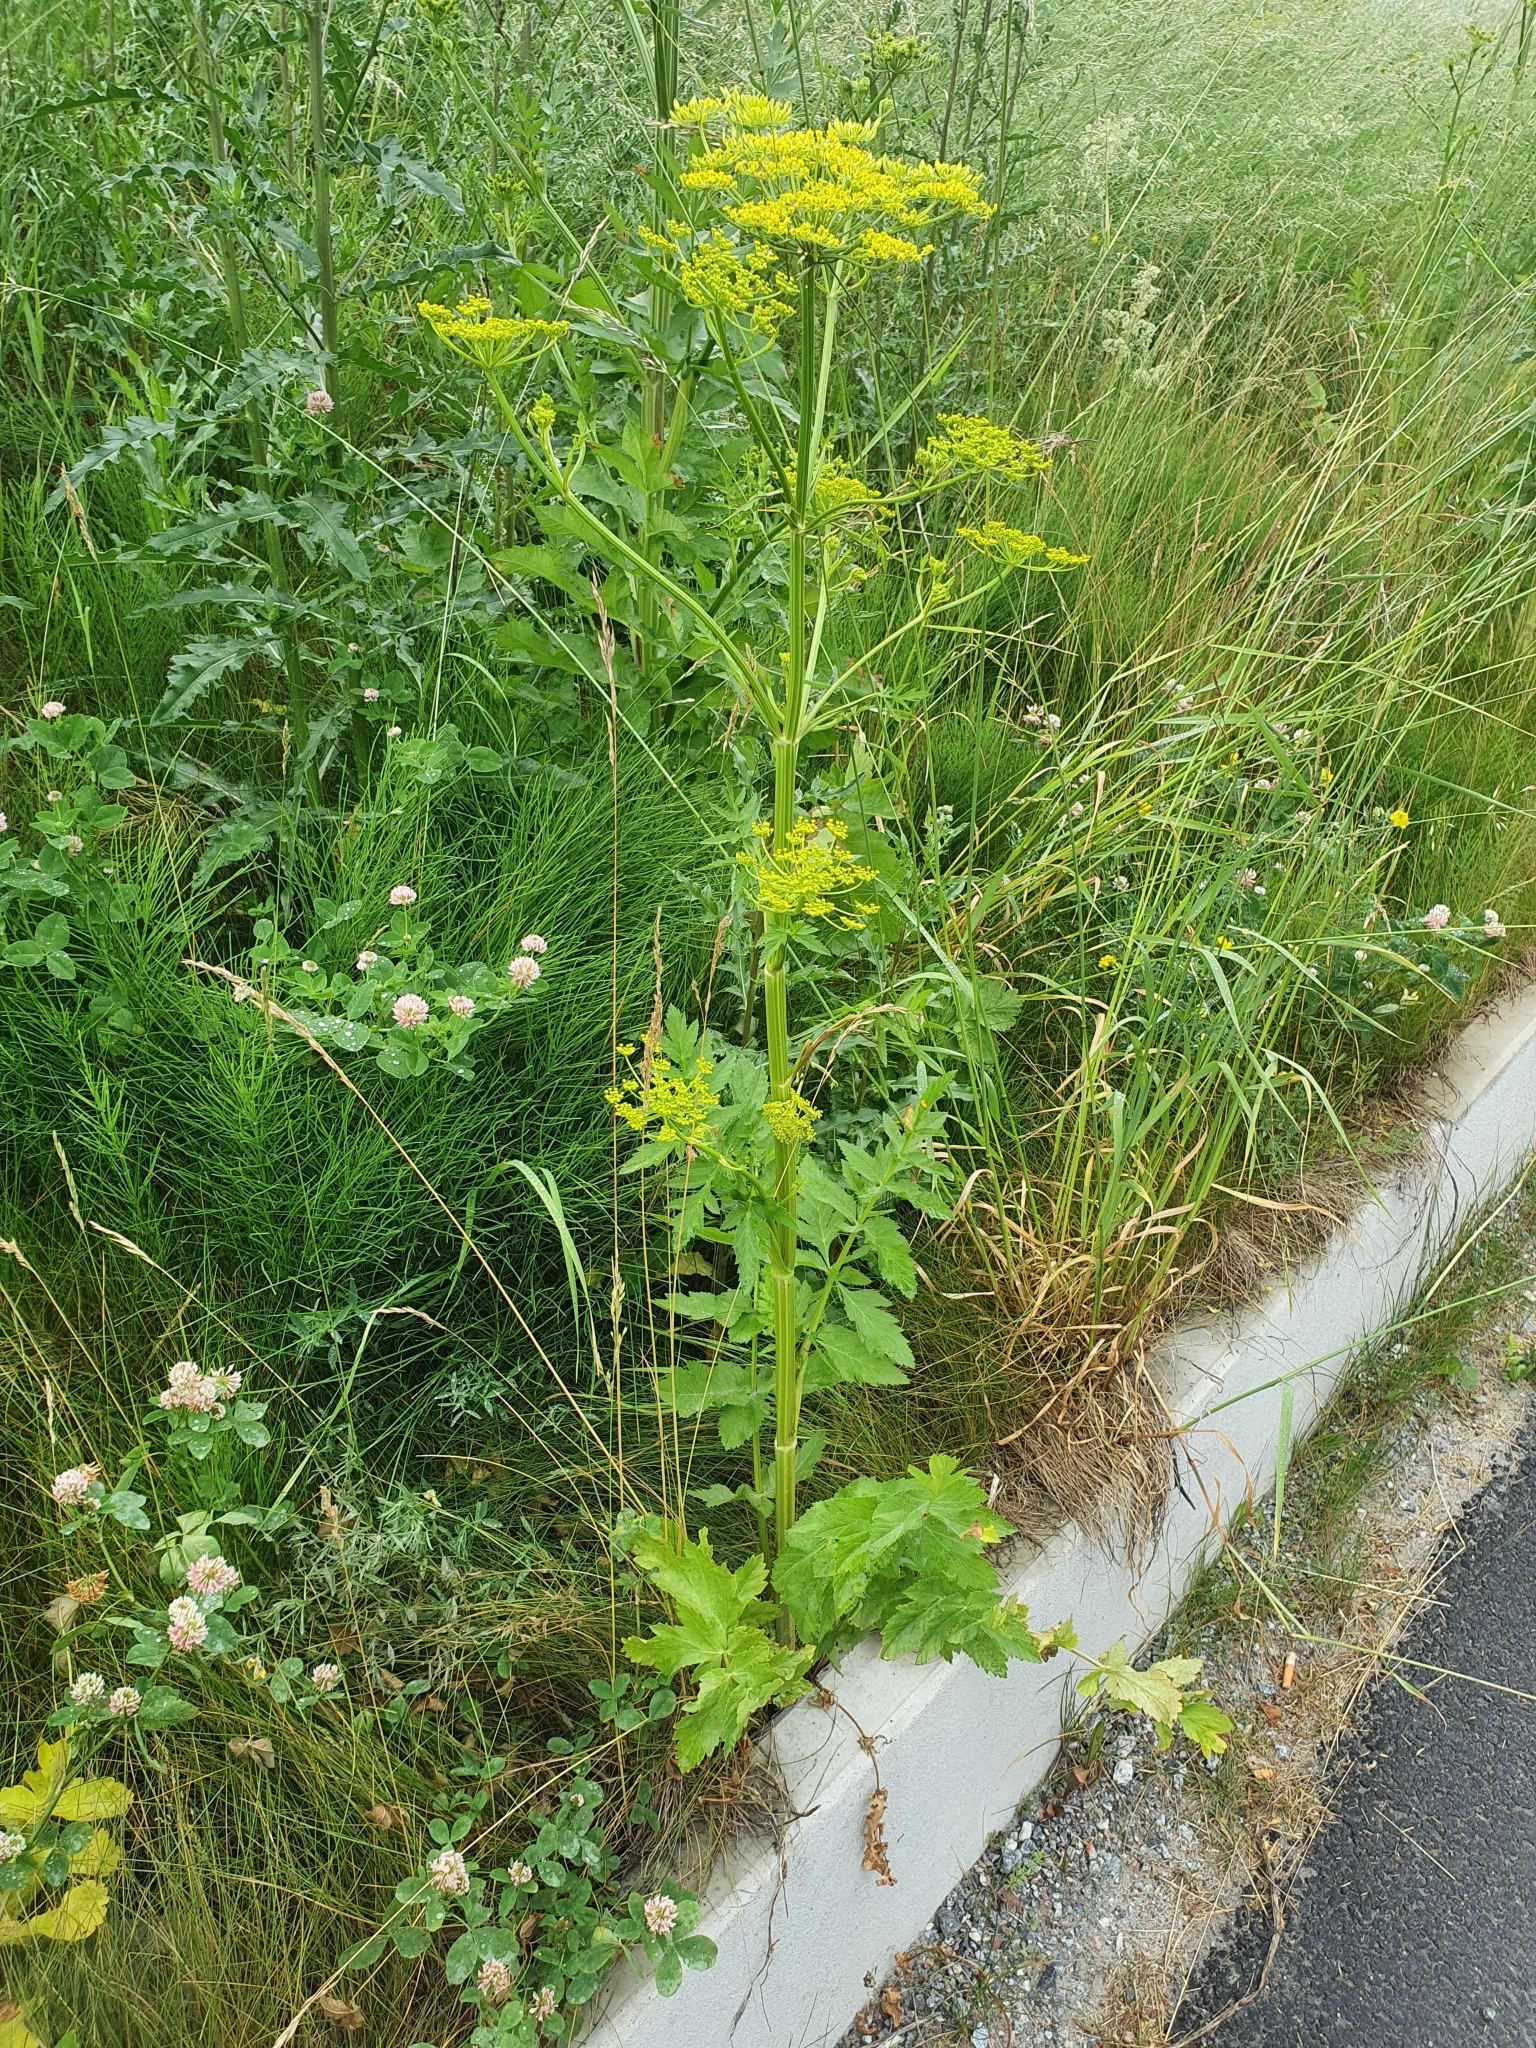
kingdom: Plantae
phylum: Tracheophyta
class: Magnoliopsida
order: Apiales
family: Apiaceae
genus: Pastinaca
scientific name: Pastinaca sativa
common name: Wild parsnip
